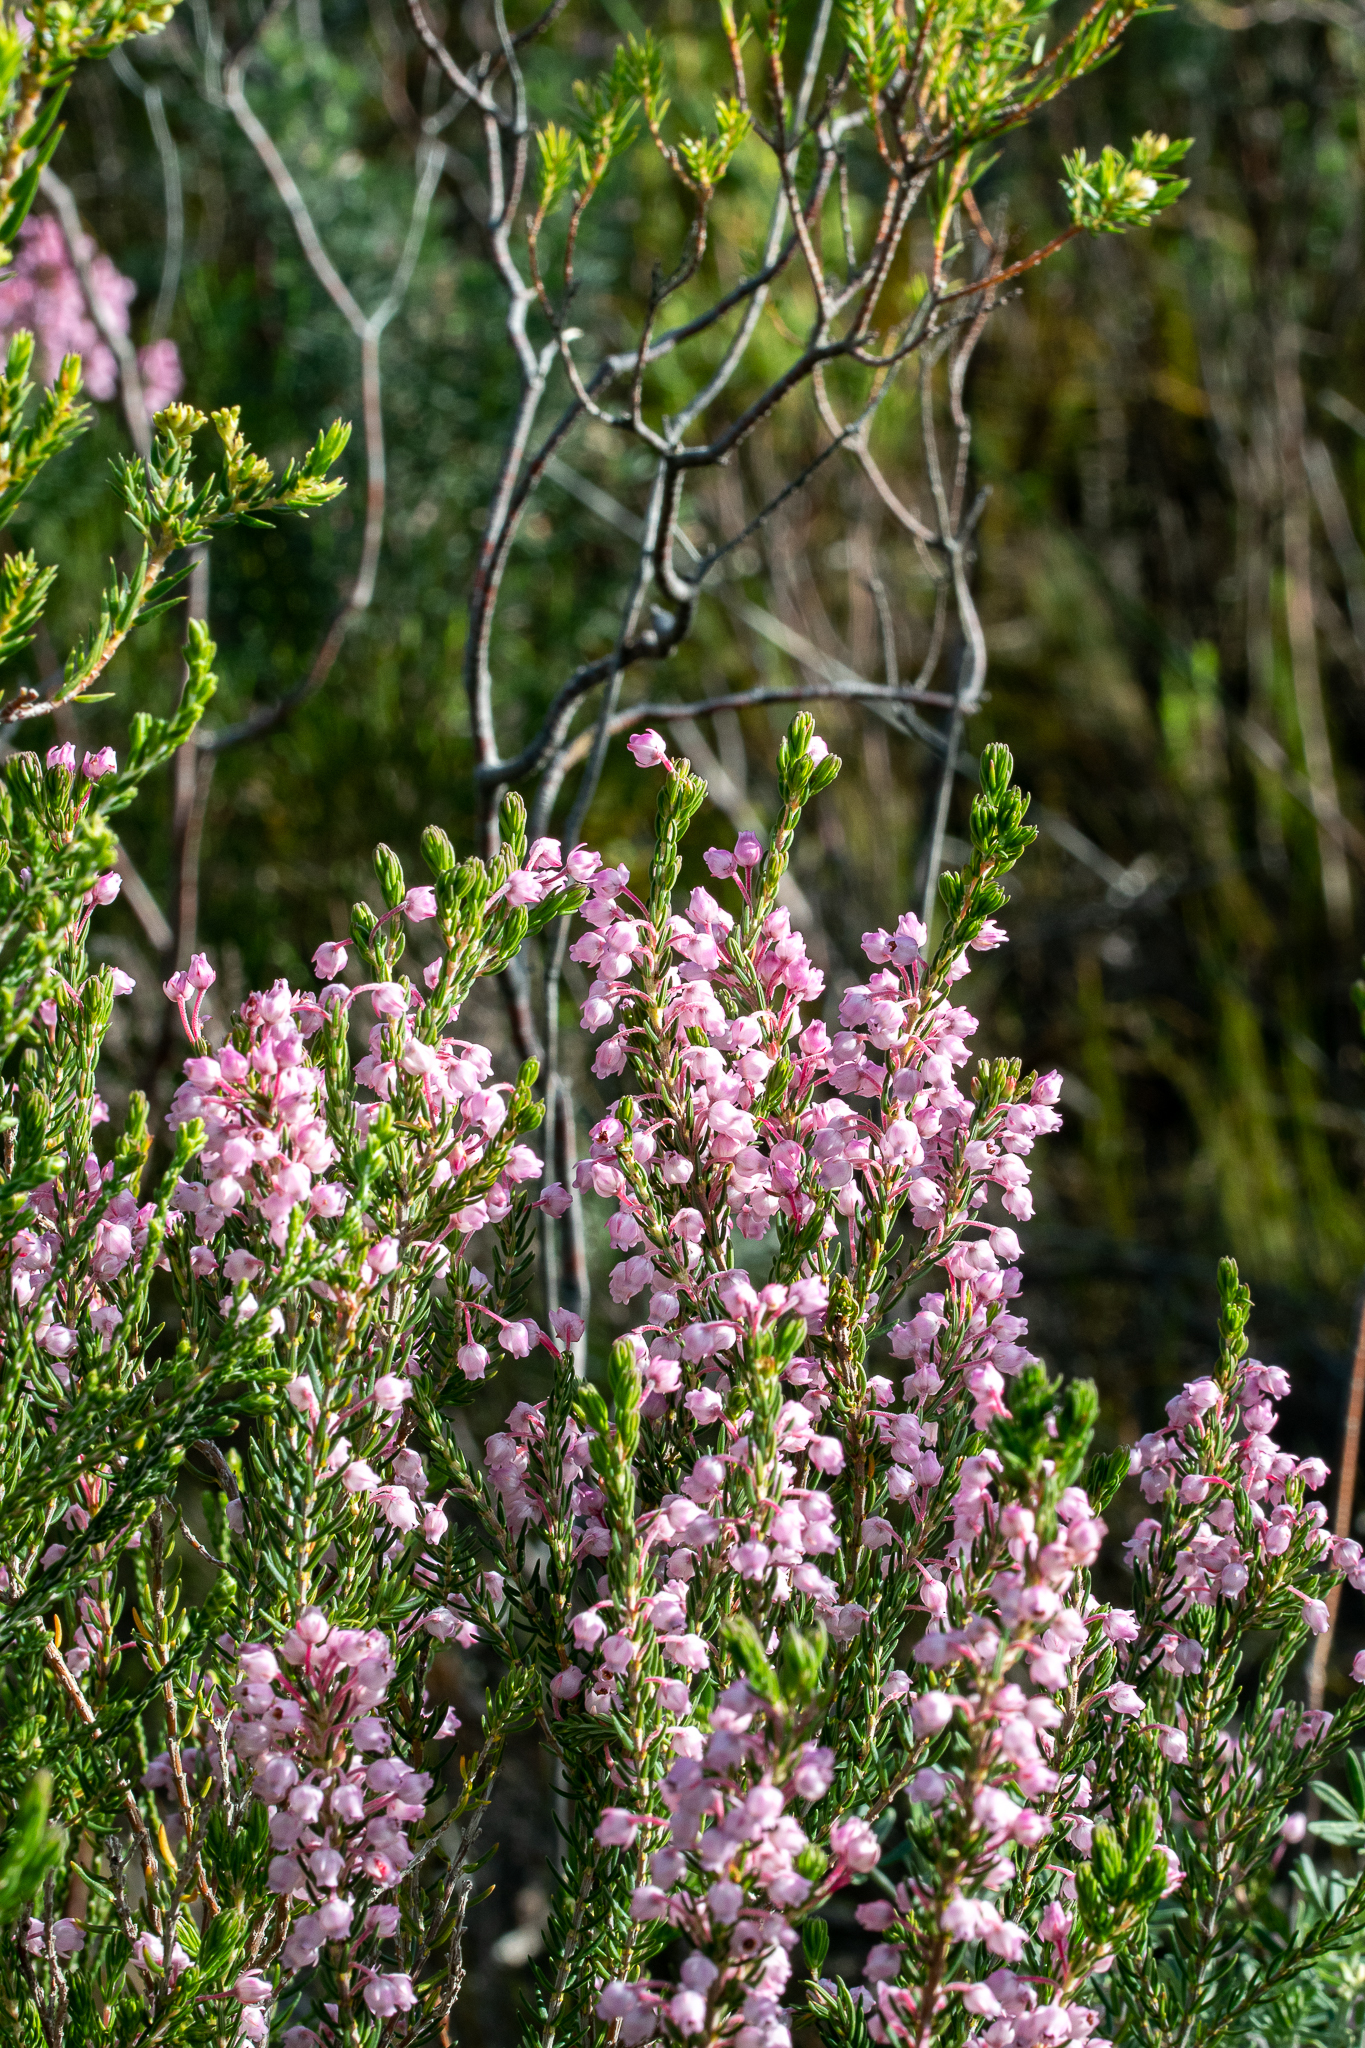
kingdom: Plantae
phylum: Tracheophyta
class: Magnoliopsida
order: Ericales
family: Ericaceae
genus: Erica
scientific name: Erica irregularis
